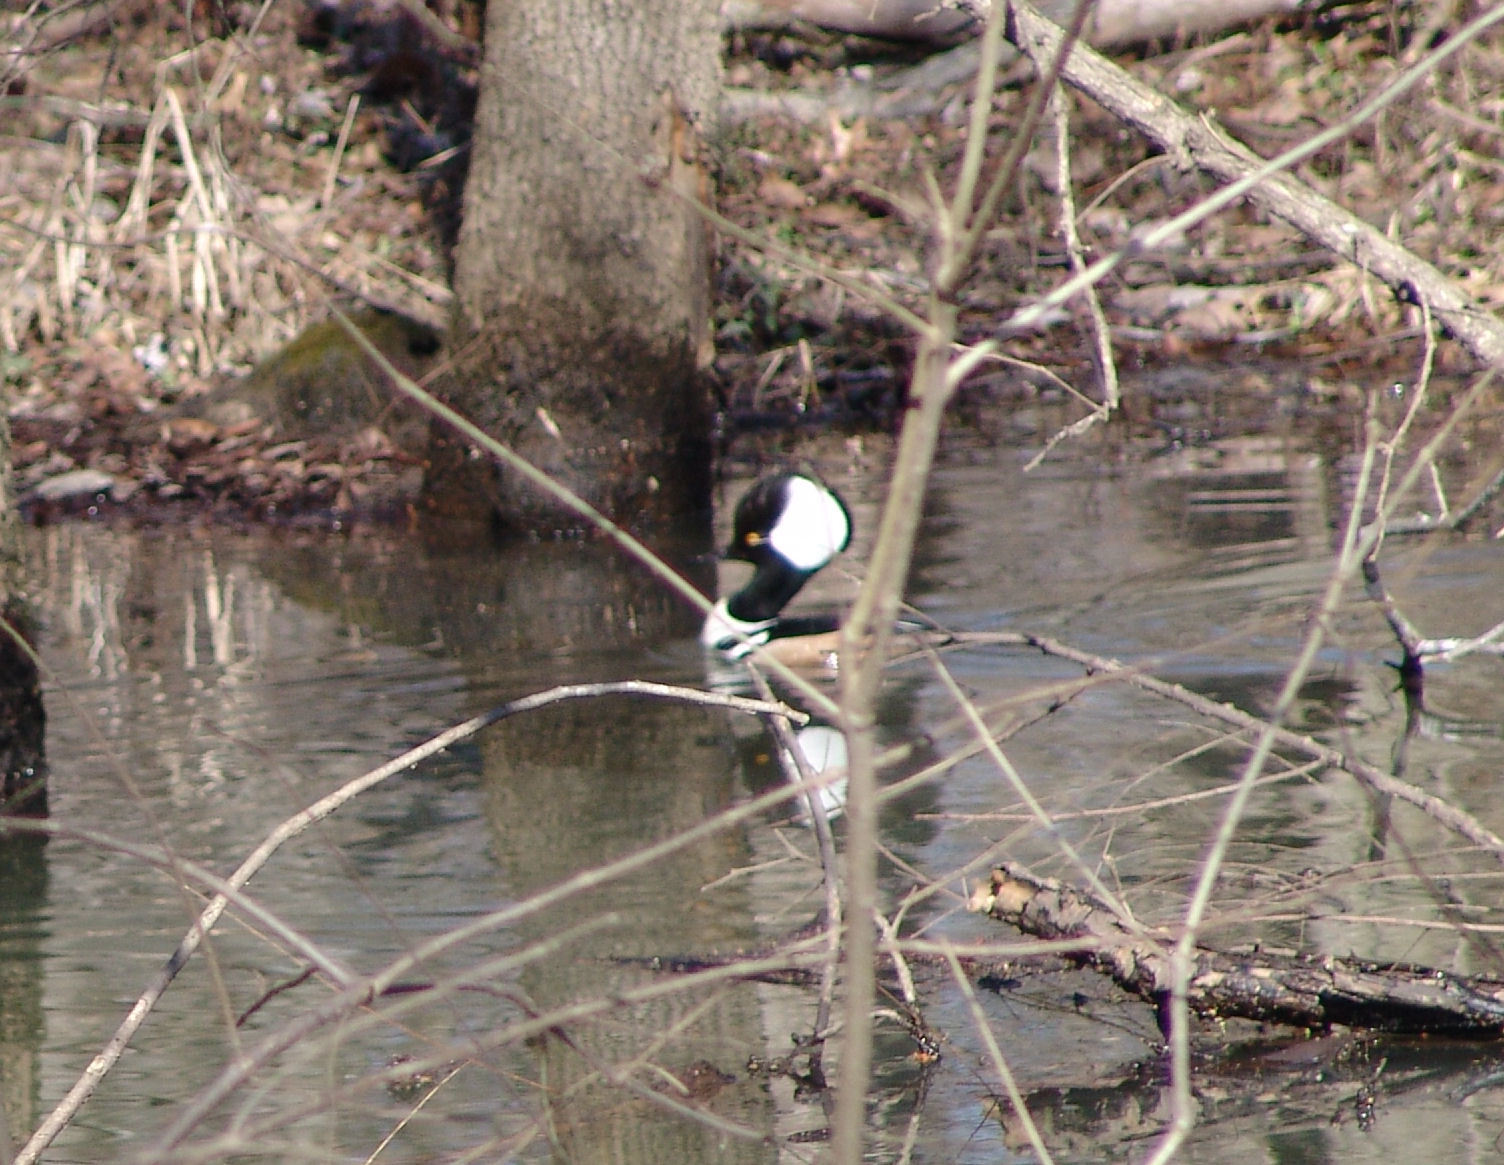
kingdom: Animalia
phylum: Chordata
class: Aves
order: Anseriformes
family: Anatidae
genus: Lophodytes
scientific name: Lophodytes cucullatus
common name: Hooded merganser
